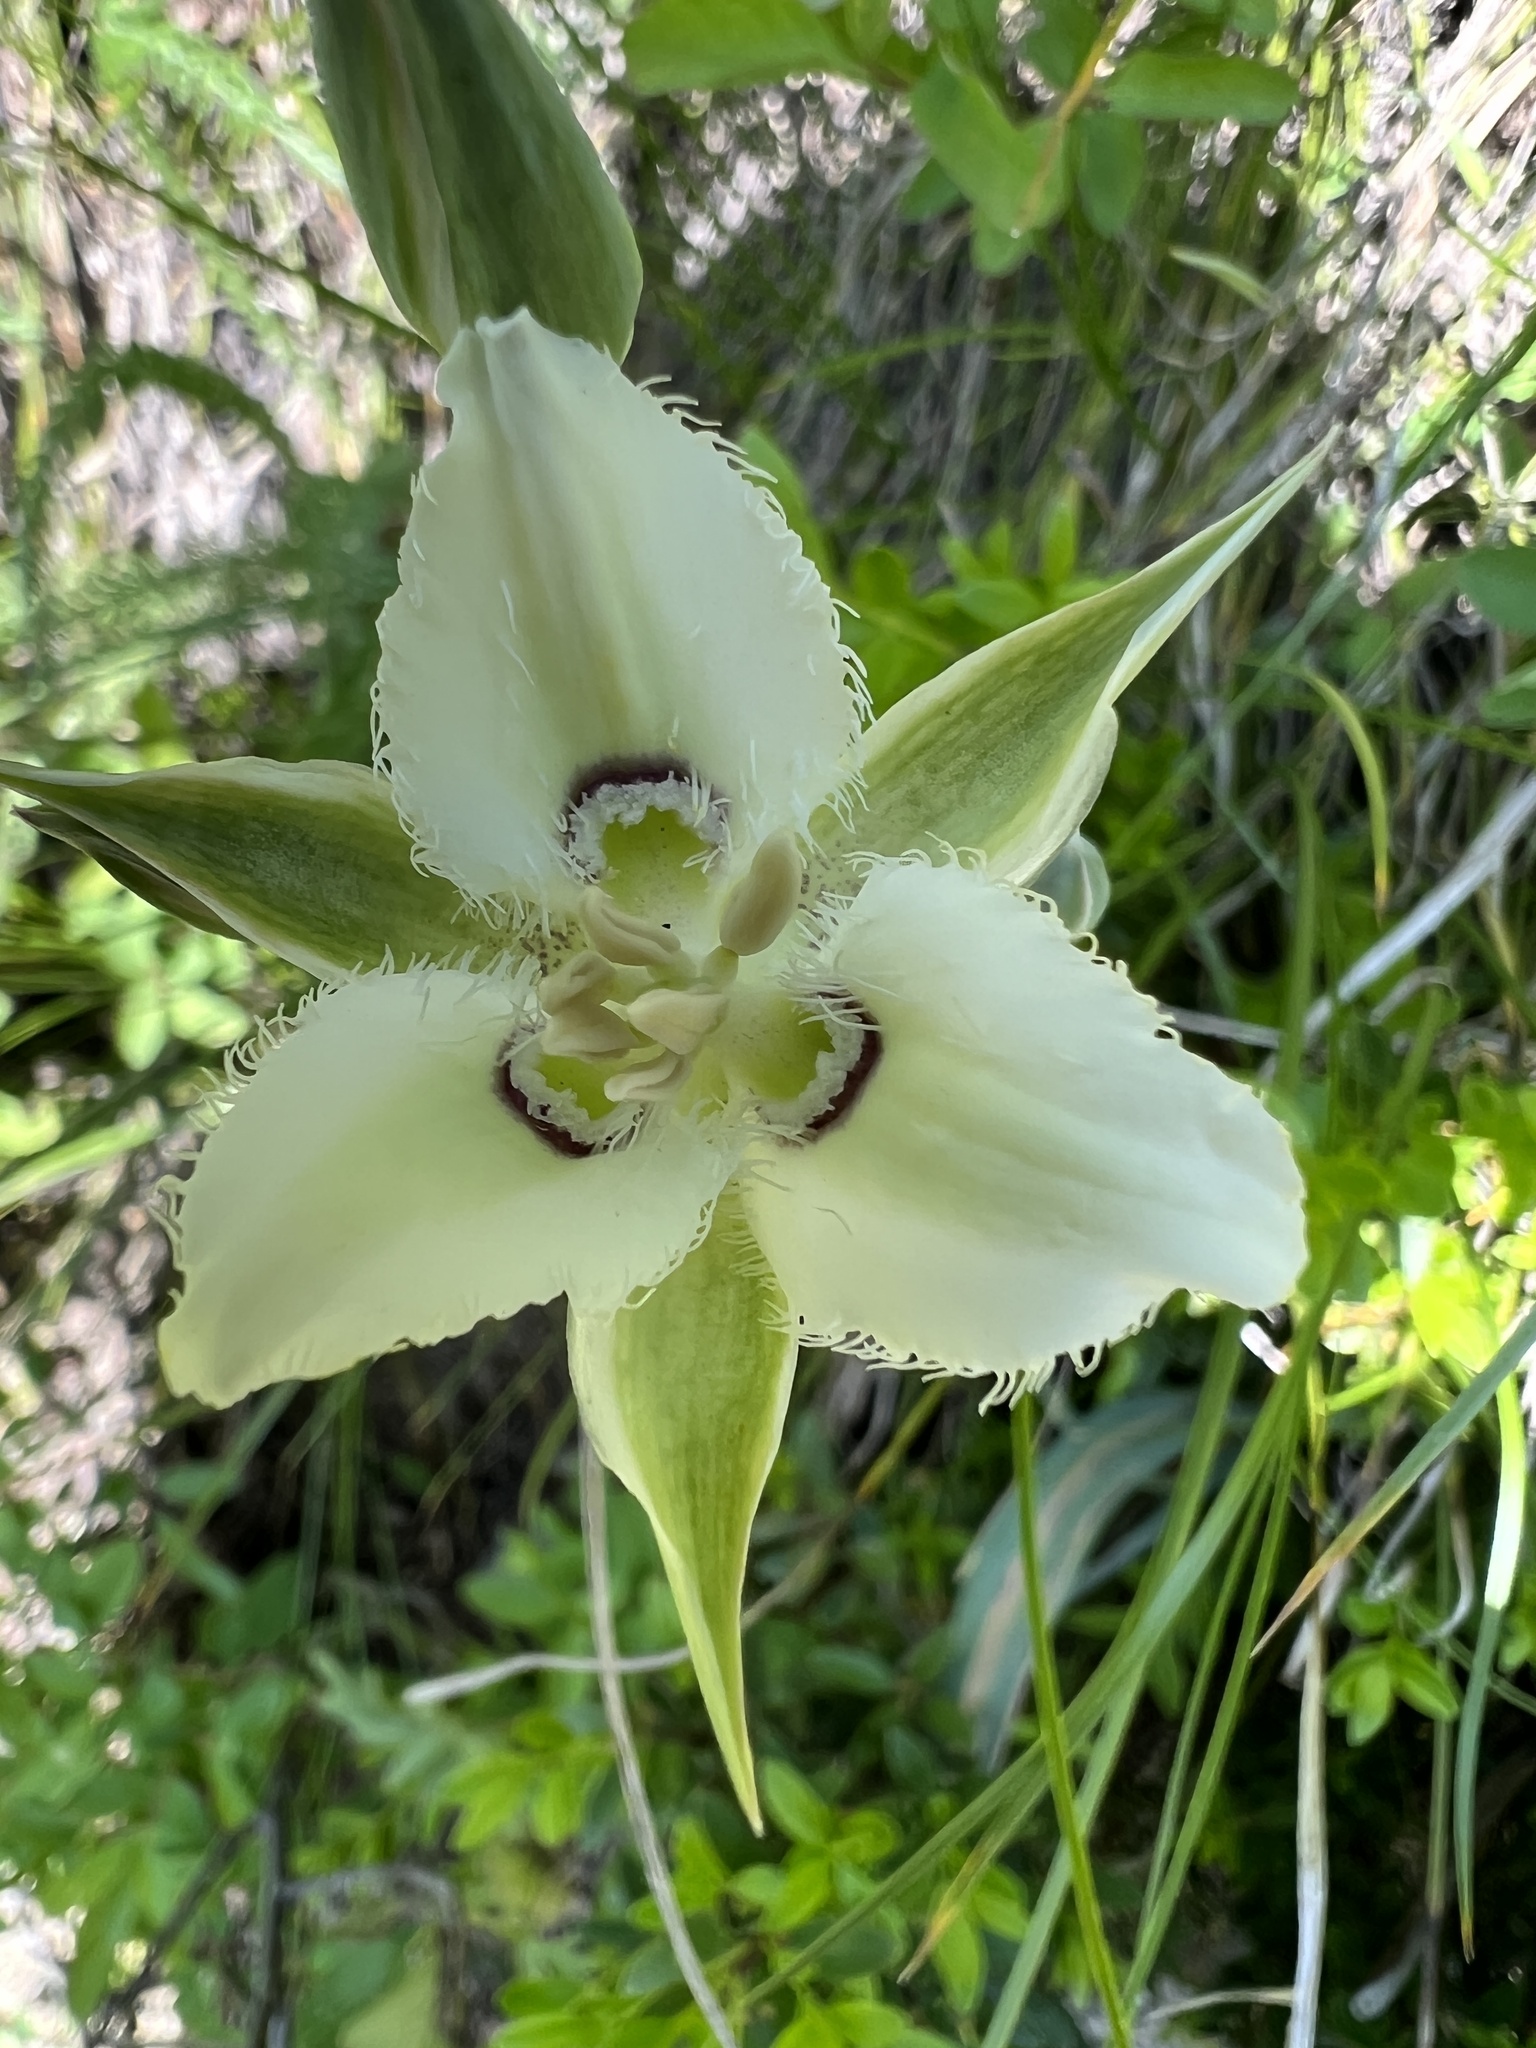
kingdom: Plantae
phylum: Tracheophyta
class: Liliopsida
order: Liliales
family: Liliaceae
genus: Calochortus
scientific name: Calochortus lyallii
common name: Lyall's mariposa lily
